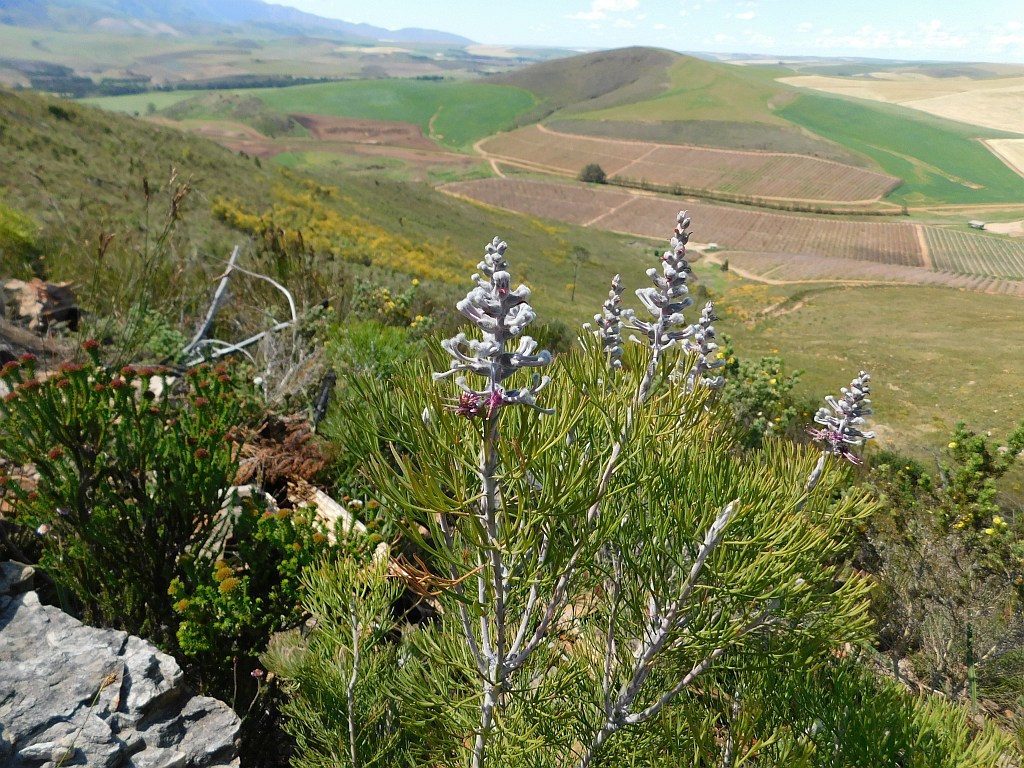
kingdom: Plantae
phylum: Tracheophyta
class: Magnoliopsida
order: Proteales
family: Proteaceae
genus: Paranomus
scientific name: Paranomus dispersus
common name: Long-head sceptre
